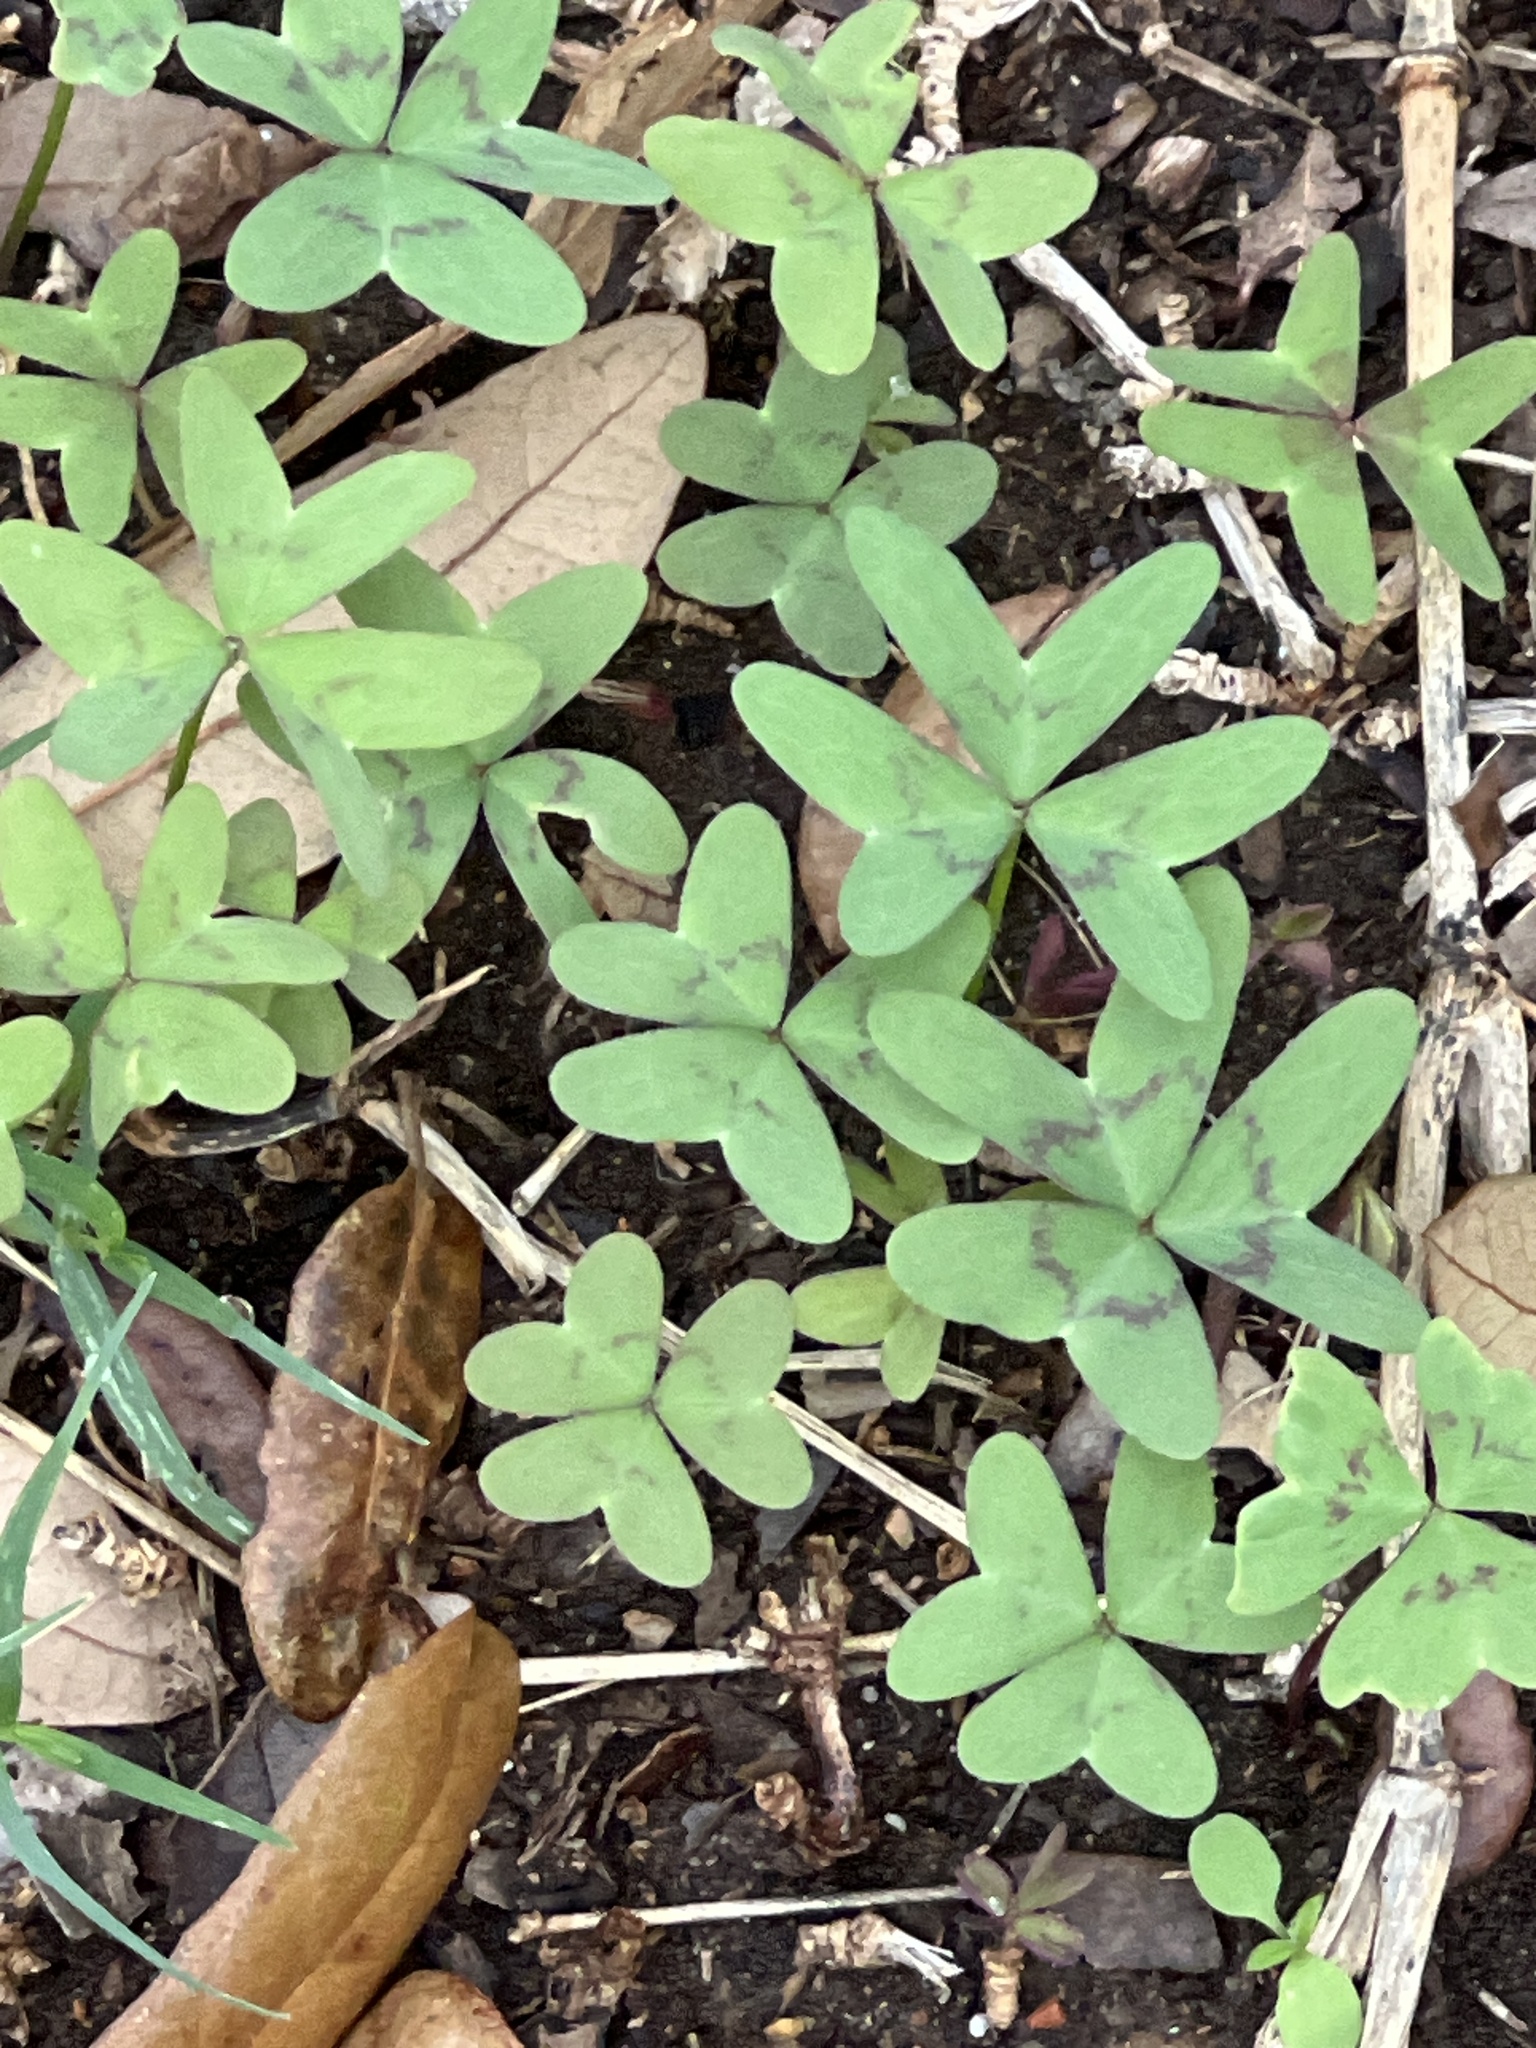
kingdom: Plantae
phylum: Tracheophyta
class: Magnoliopsida
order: Oxalidales
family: Oxalidaceae
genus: Oxalis
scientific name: Oxalis drummondii
